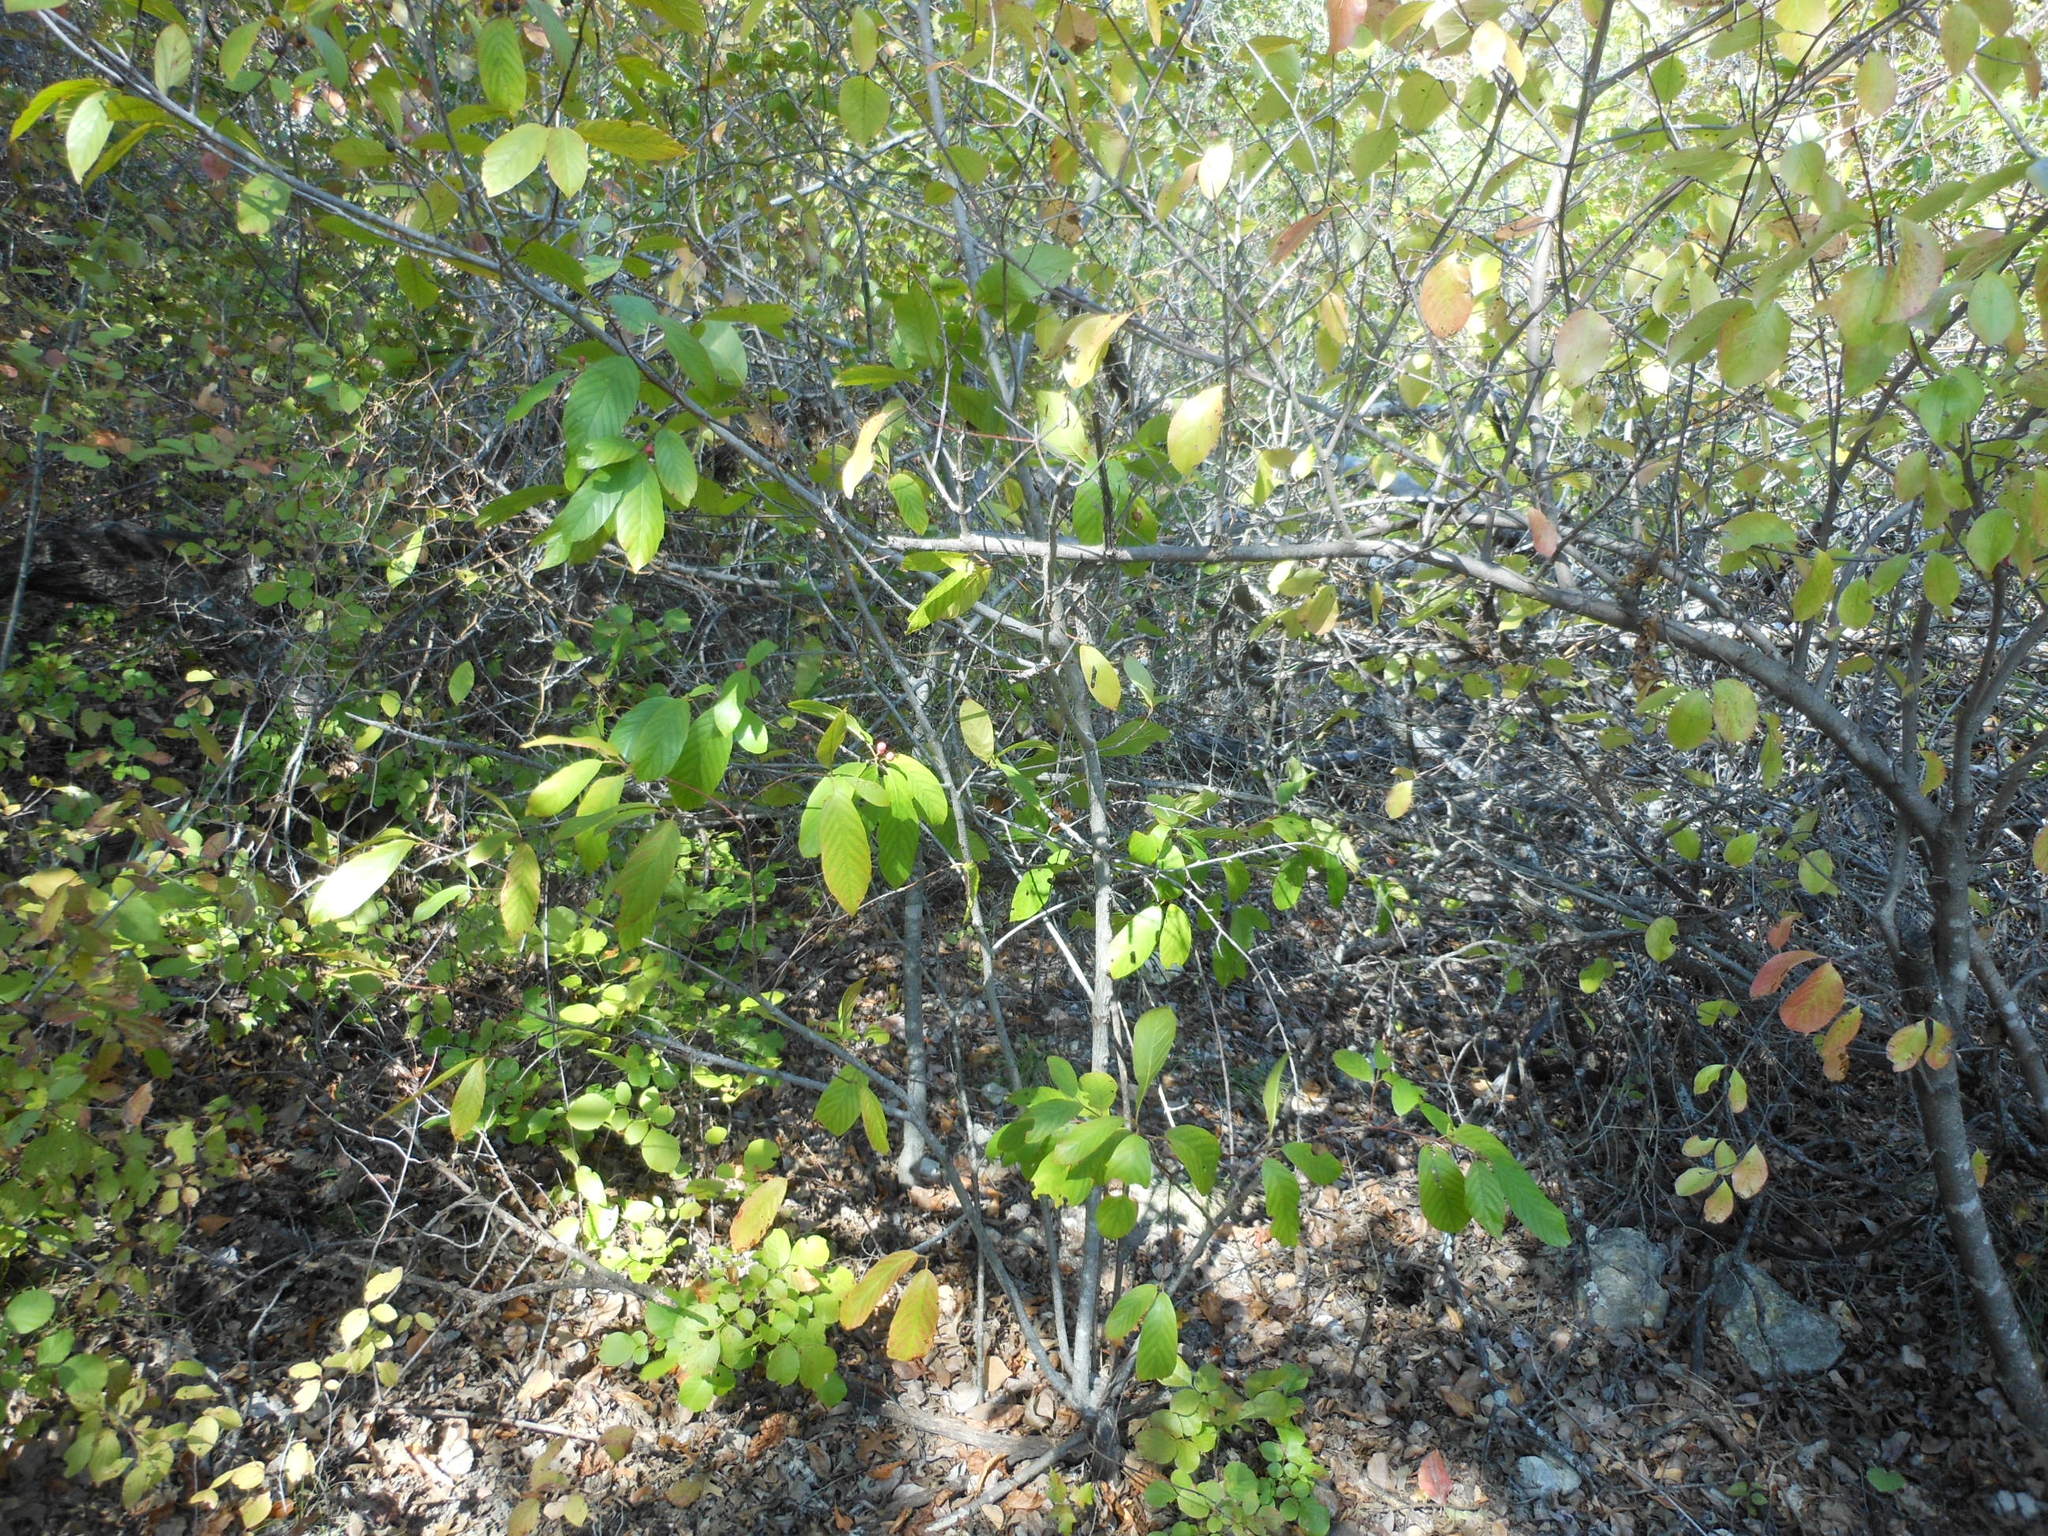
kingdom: Plantae
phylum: Tracheophyta
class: Magnoliopsida
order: Rosales
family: Rhamnaceae
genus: Frangula
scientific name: Frangula caroliniana
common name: Carolina buckthorn
